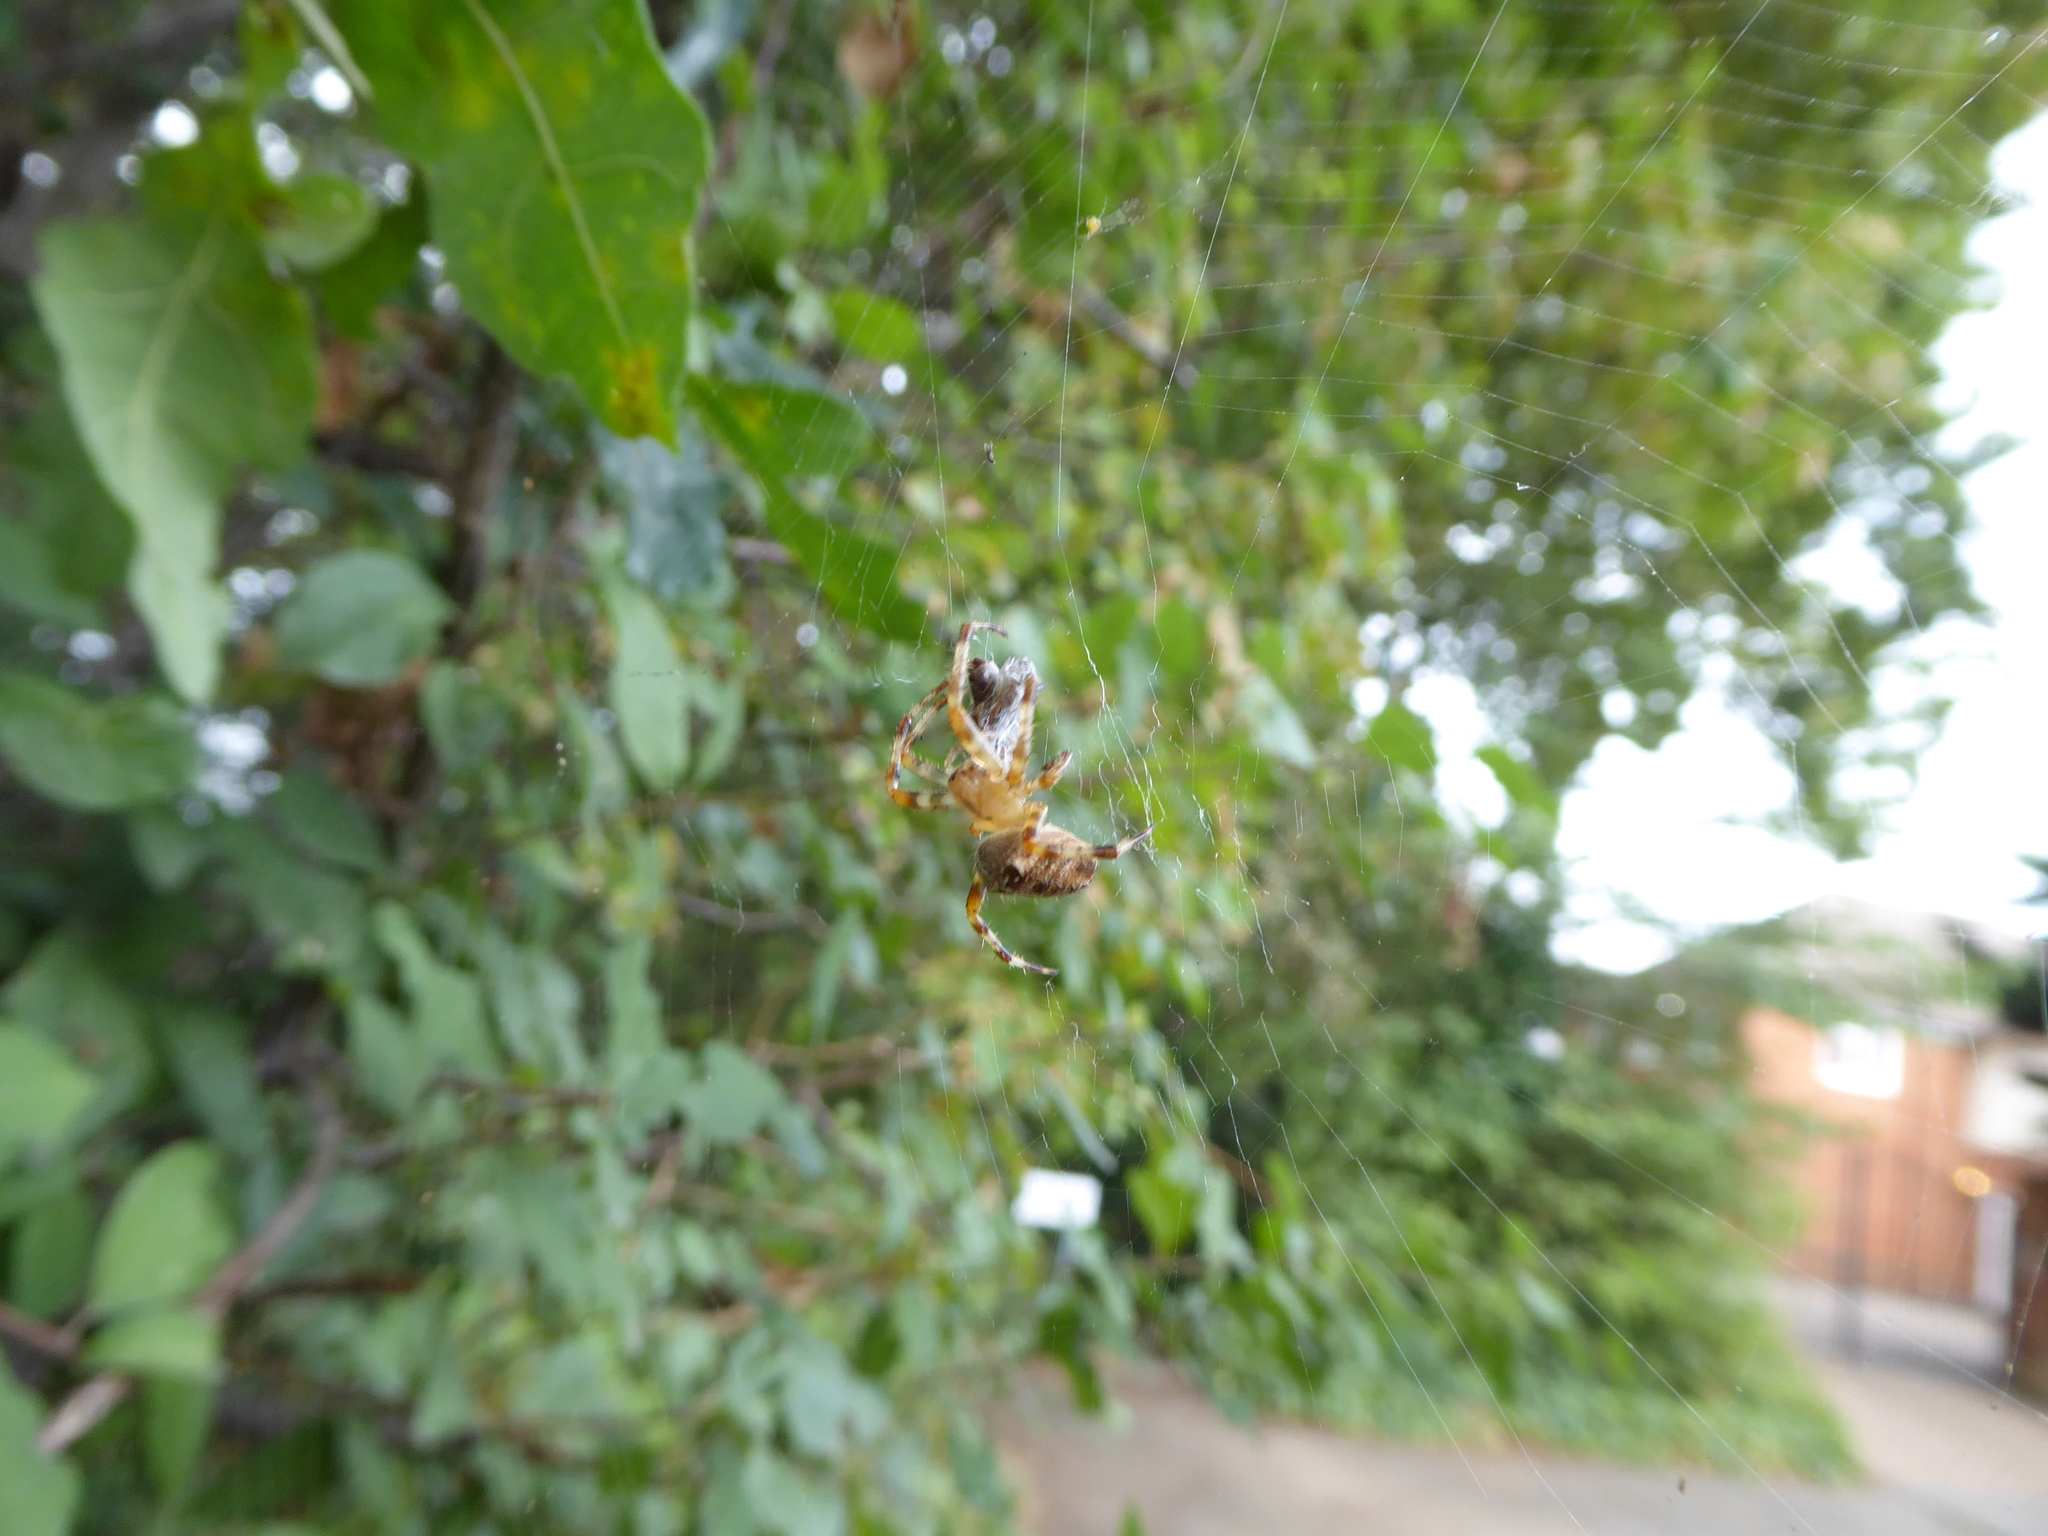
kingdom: Animalia
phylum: Arthropoda
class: Arachnida
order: Araneae
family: Araneidae
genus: Araneus
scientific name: Araneus diadematus
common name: Cross orbweaver
